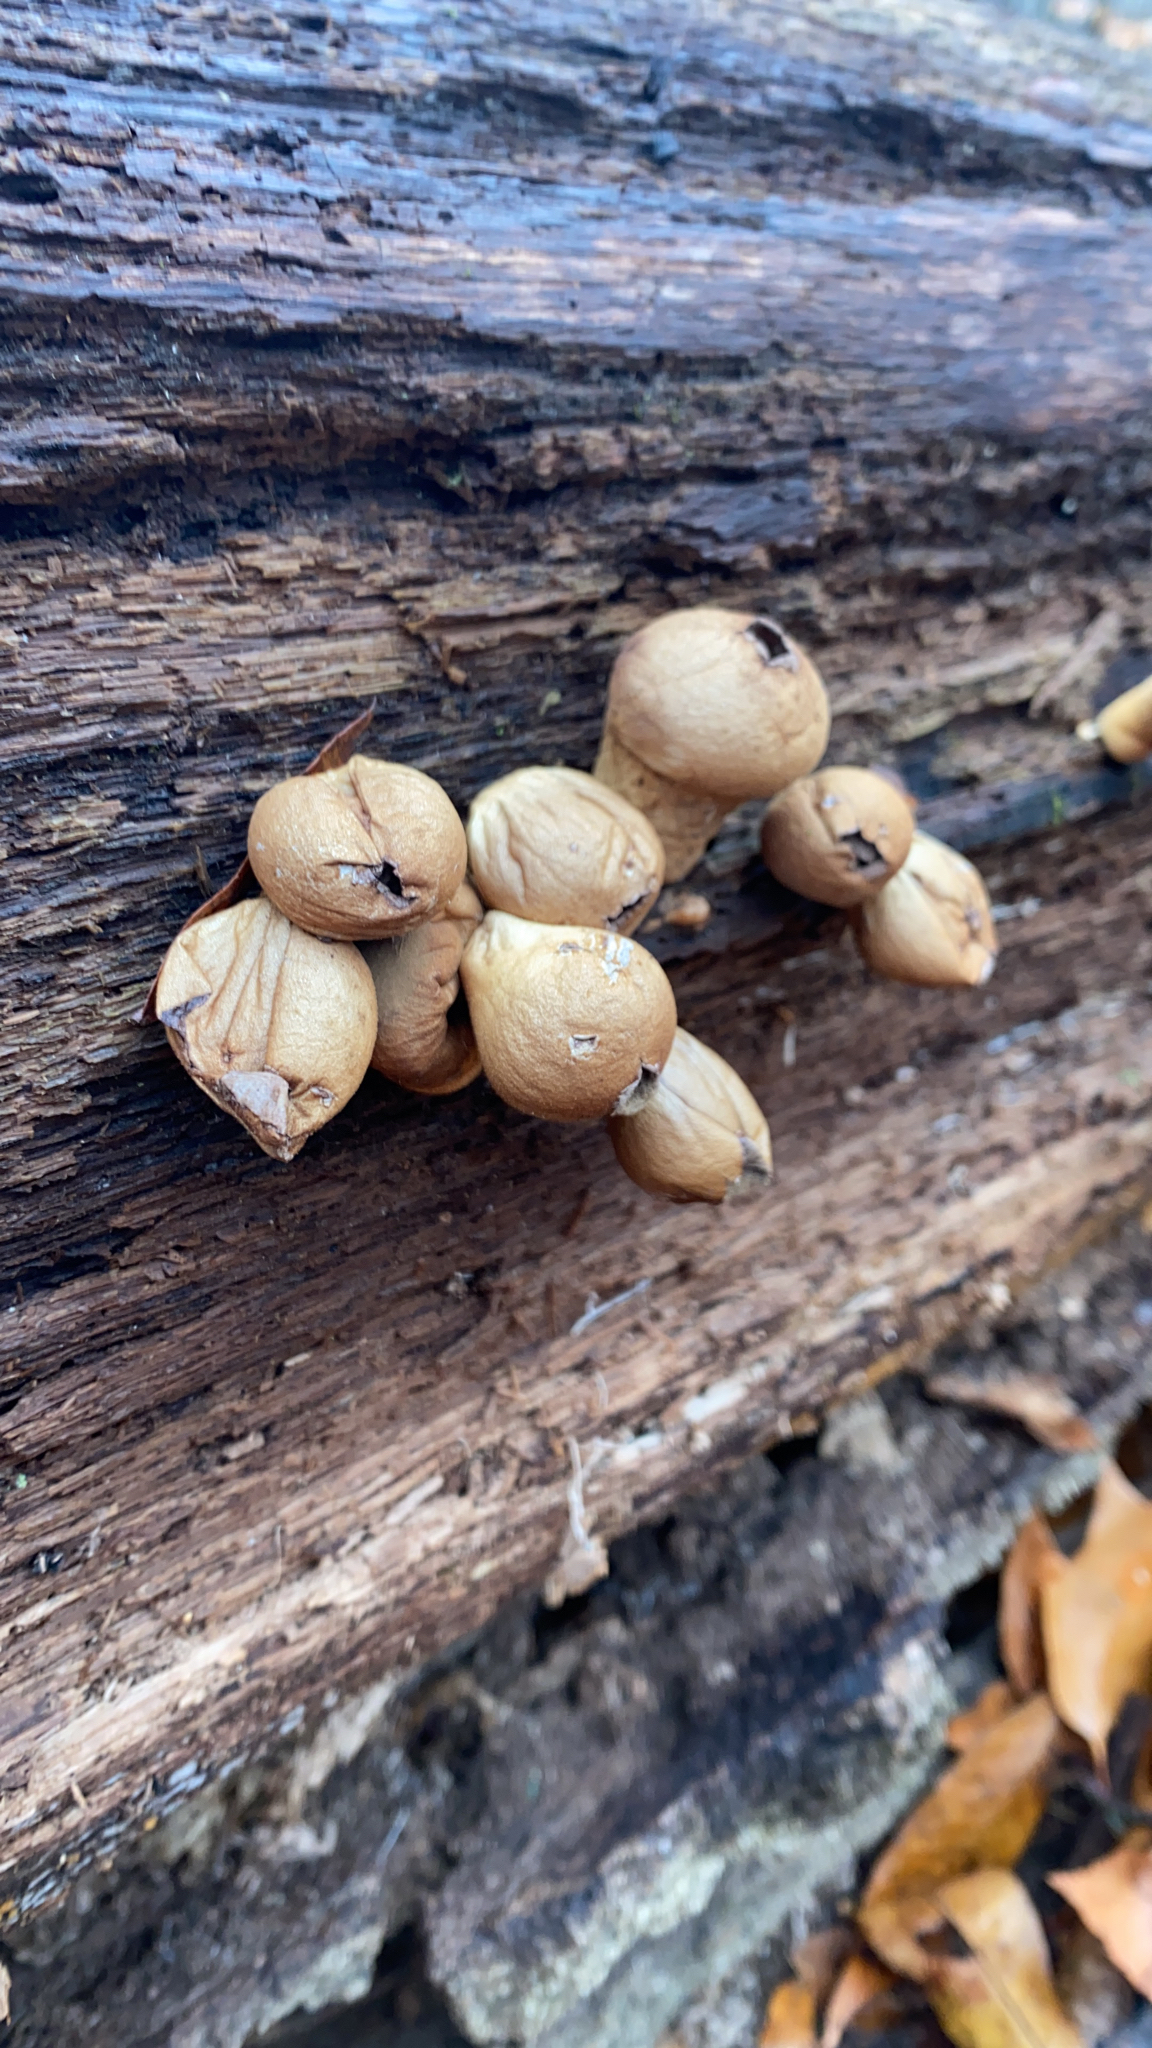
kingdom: Fungi
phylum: Basidiomycota
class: Agaricomycetes
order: Agaricales
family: Lycoperdaceae
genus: Apioperdon
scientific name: Apioperdon pyriforme
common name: Pear-shaped puffball
